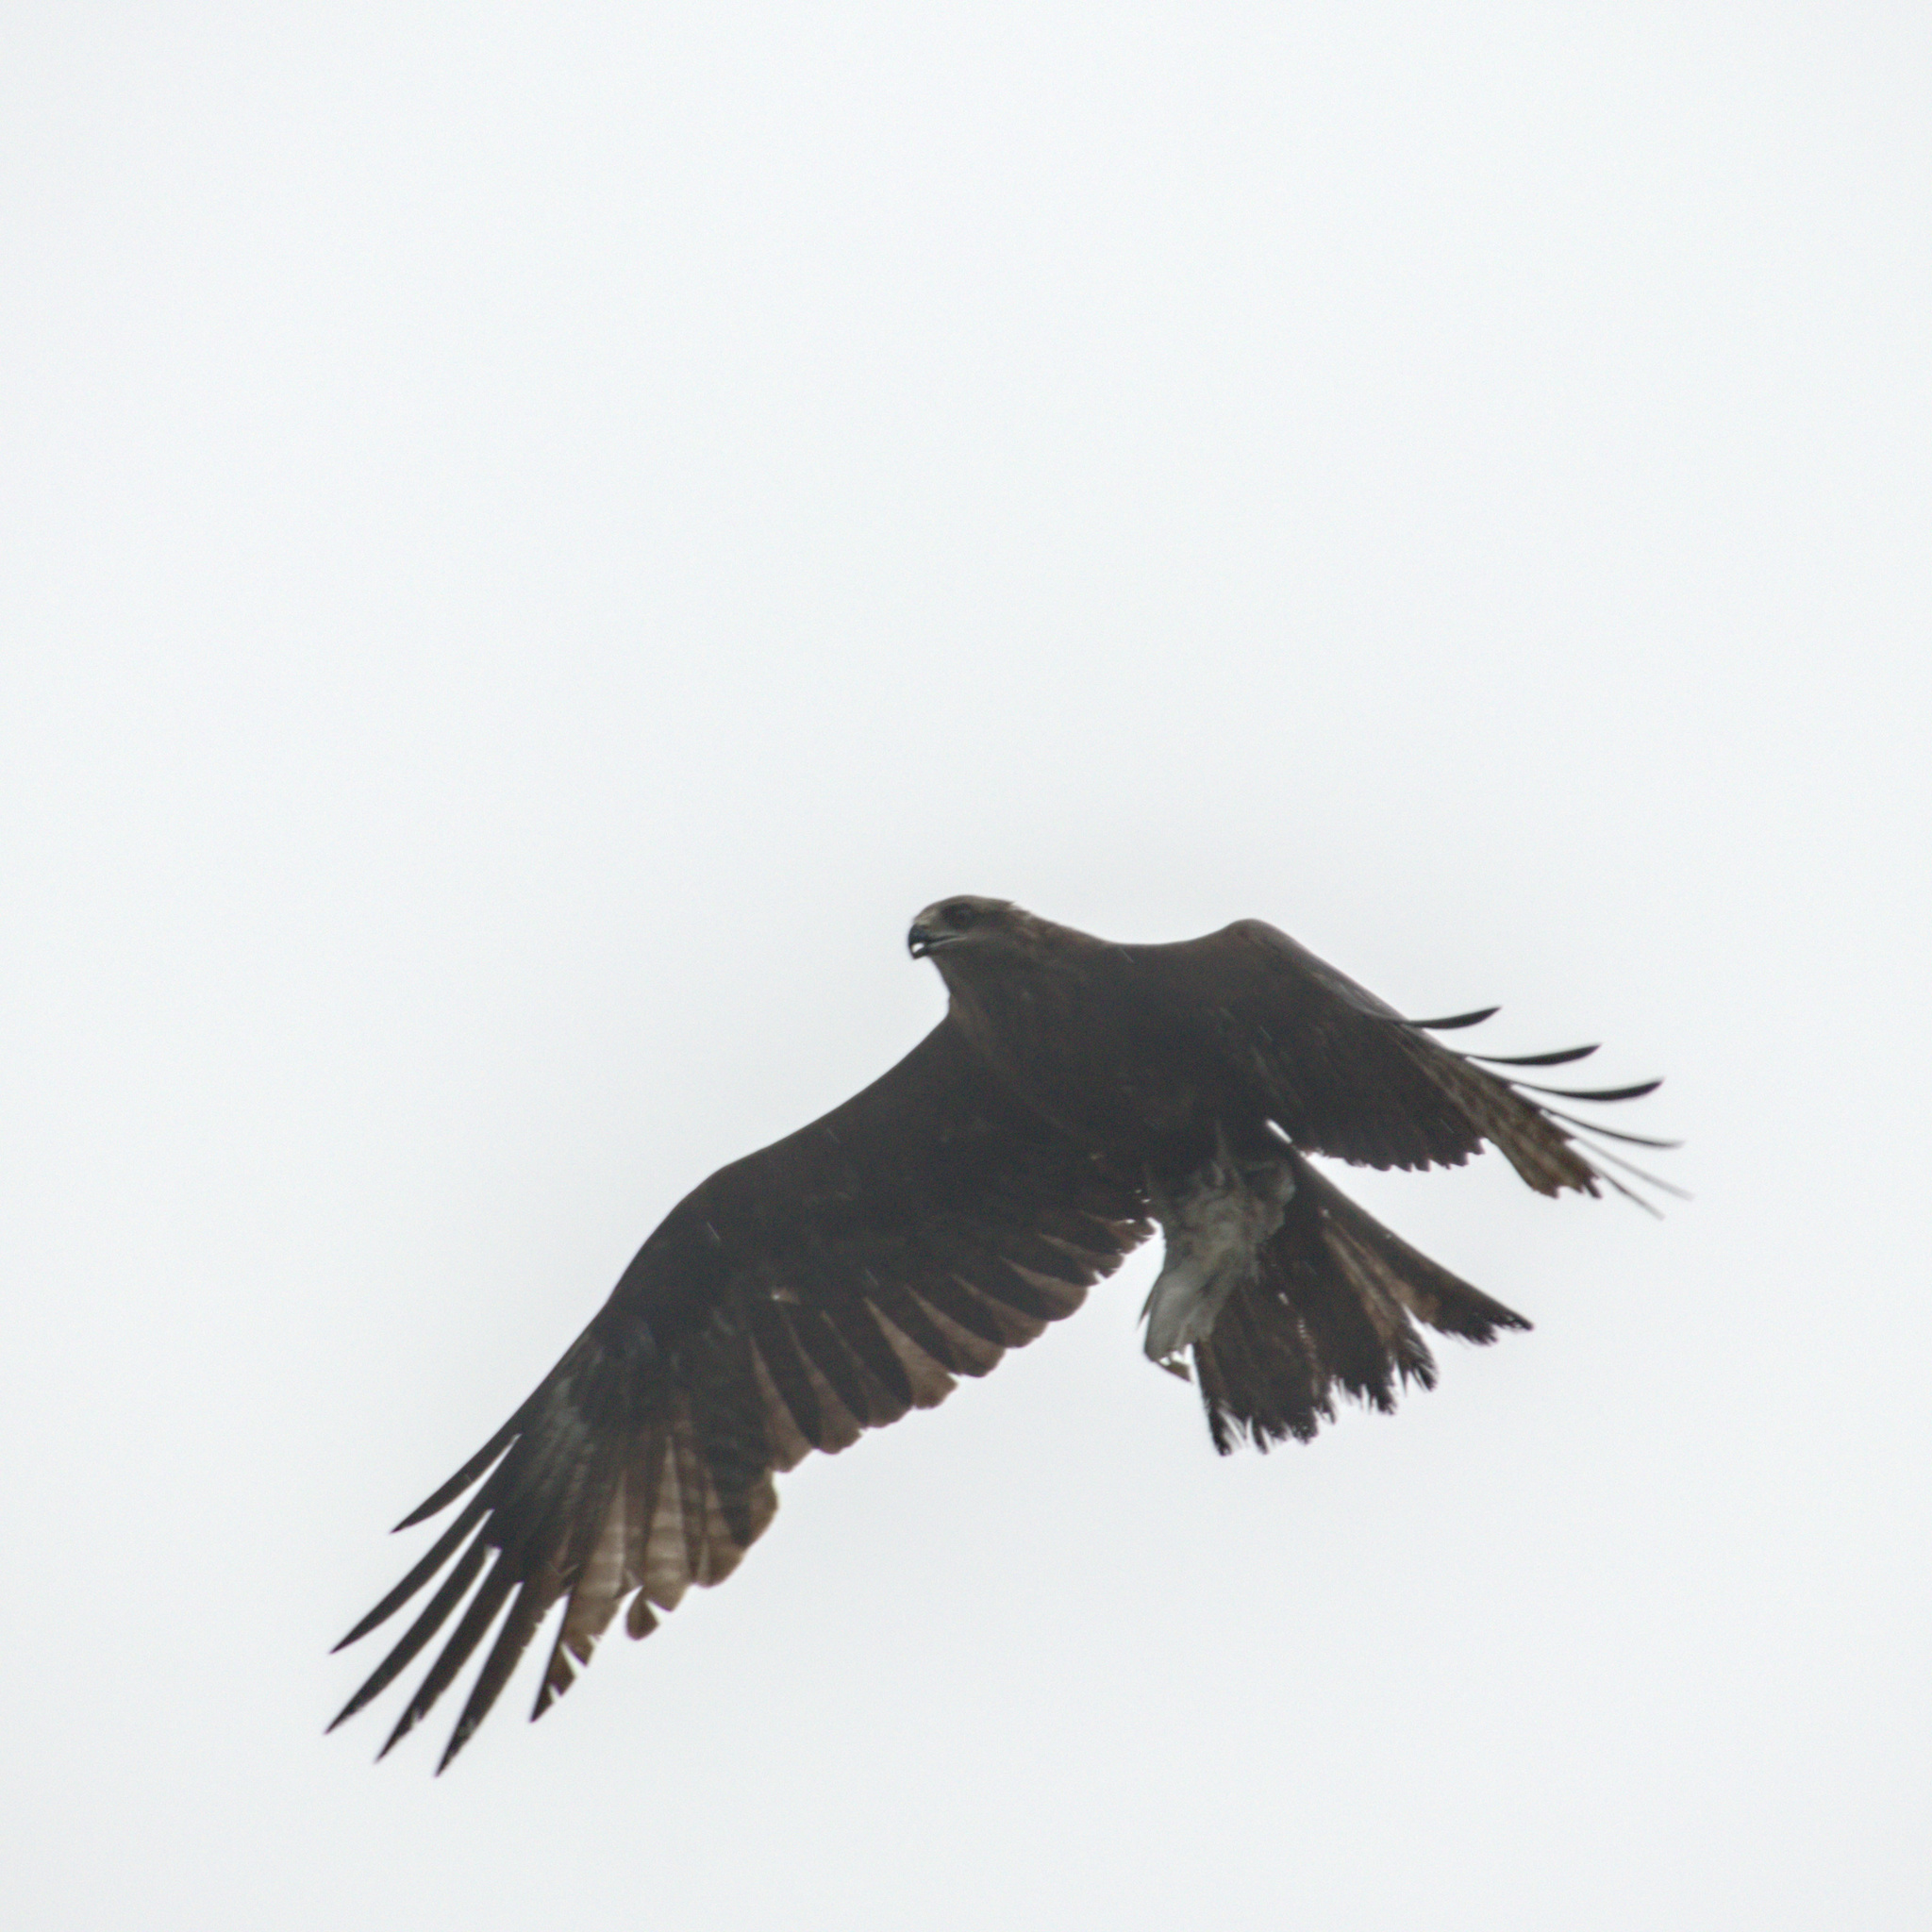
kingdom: Animalia
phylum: Chordata
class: Aves
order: Accipitriformes
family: Accipitridae
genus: Milvus
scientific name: Milvus migrans
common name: Black kite
